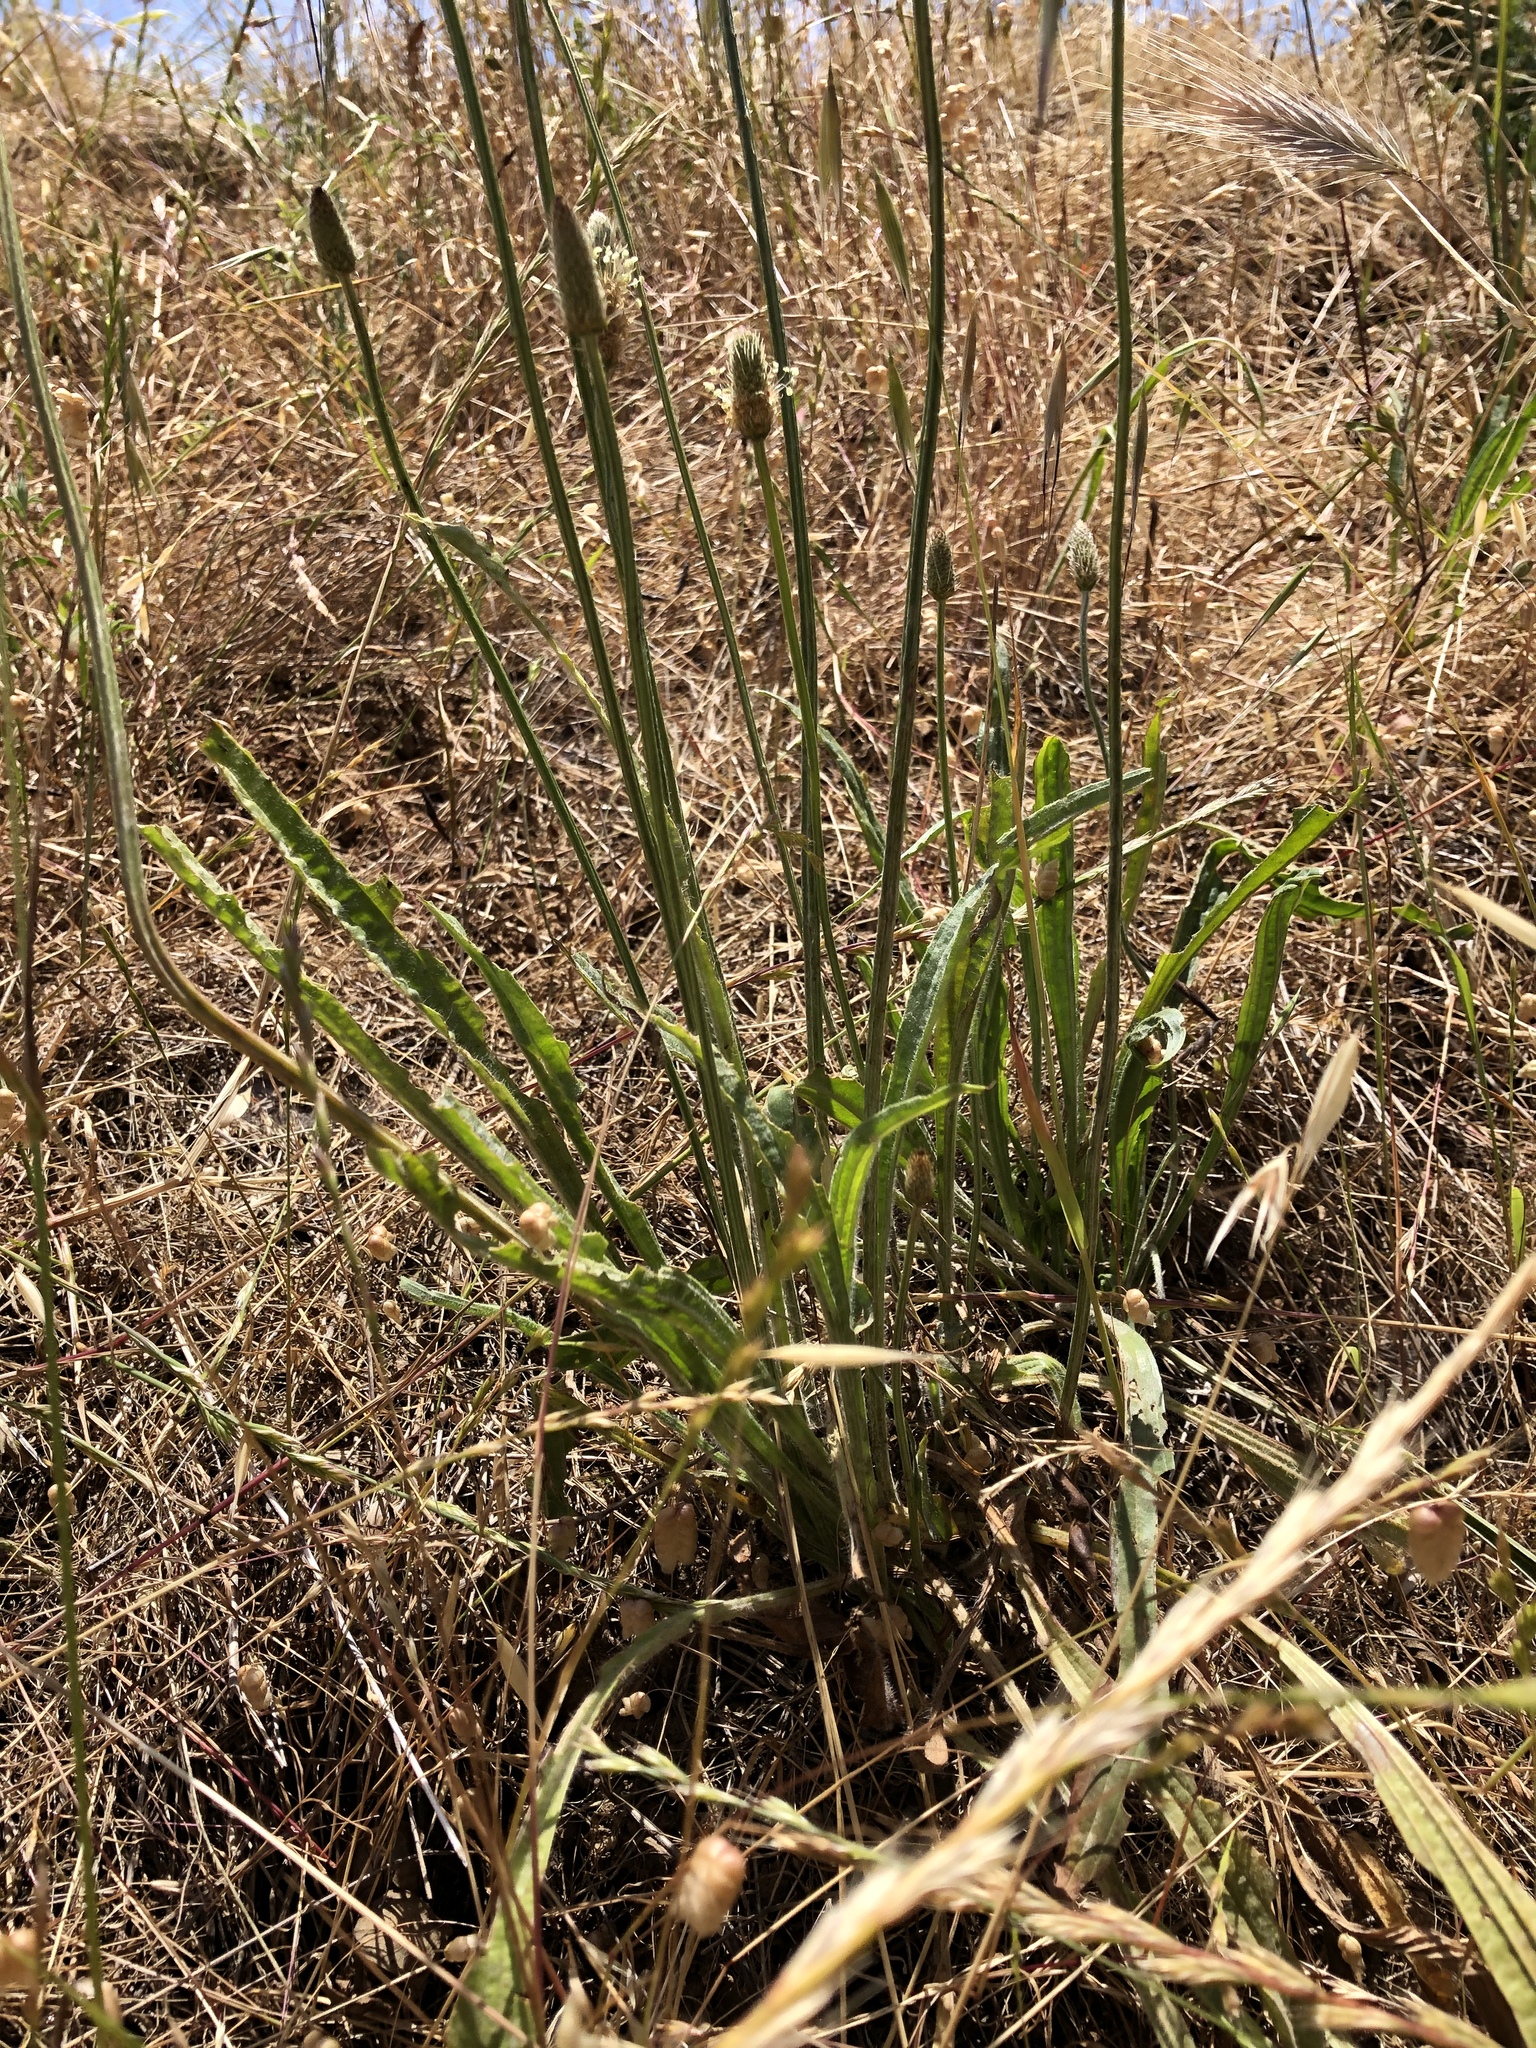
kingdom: Plantae
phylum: Tracheophyta
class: Magnoliopsida
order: Lamiales
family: Plantaginaceae
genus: Plantago
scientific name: Plantago lanceolata
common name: Ribwort plantain
